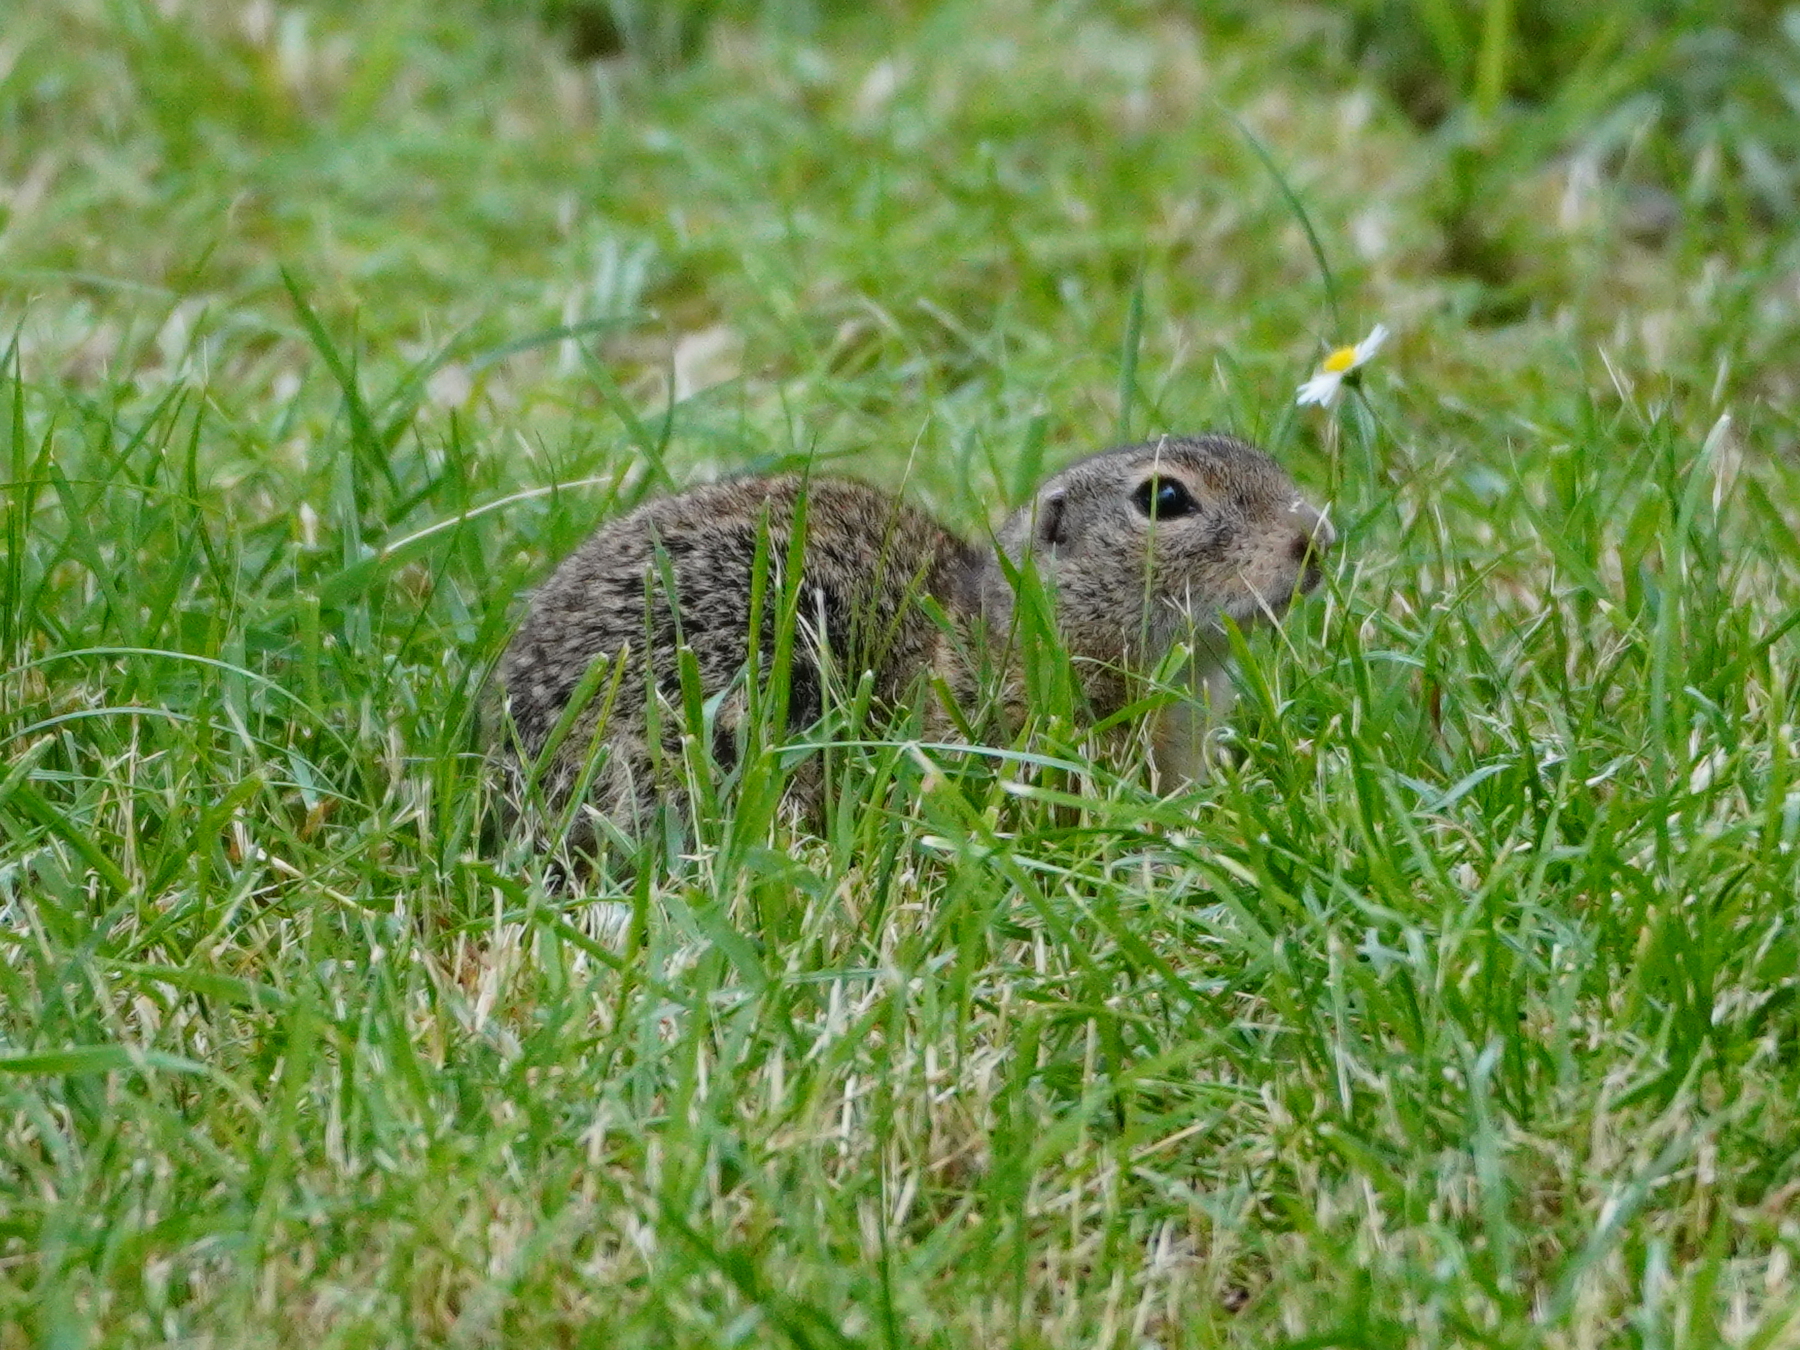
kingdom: Animalia
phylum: Chordata
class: Mammalia
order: Rodentia
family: Sciuridae
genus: Spermophilus
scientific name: Spermophilus citellus
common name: European ground squirrel
